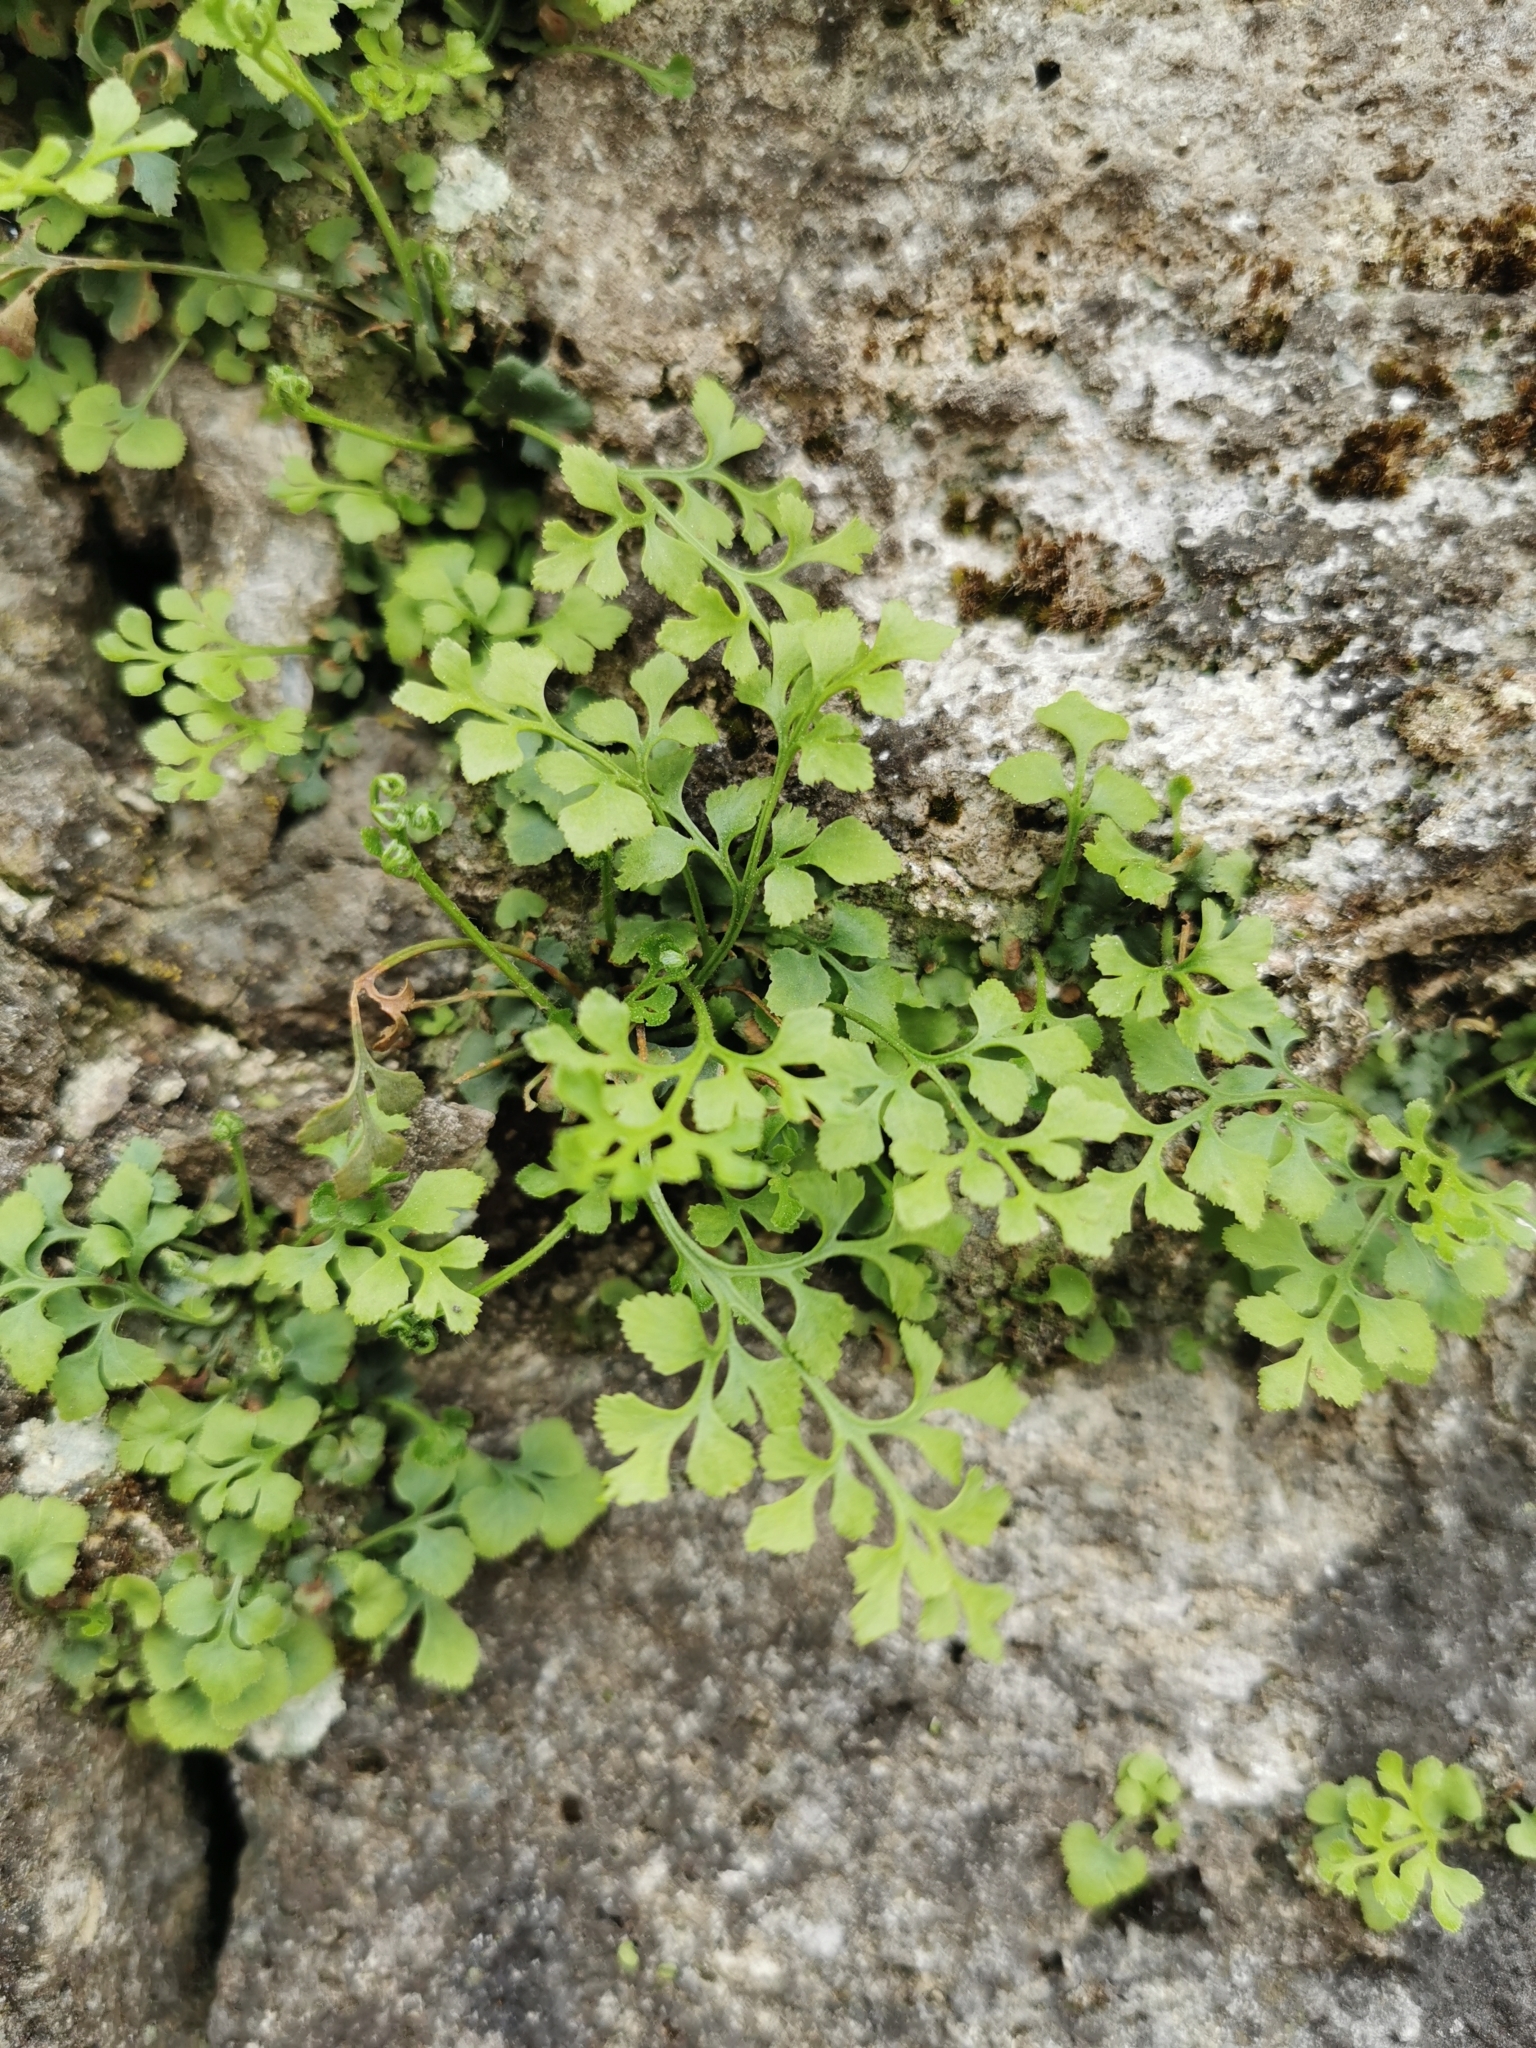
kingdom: Plantae
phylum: Tracheophyta
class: Polypodiopsida
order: Polypodiales
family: Aspleniaceae
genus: Asplenium
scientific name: Asplenium ruta-muraria
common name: Wall-rue
